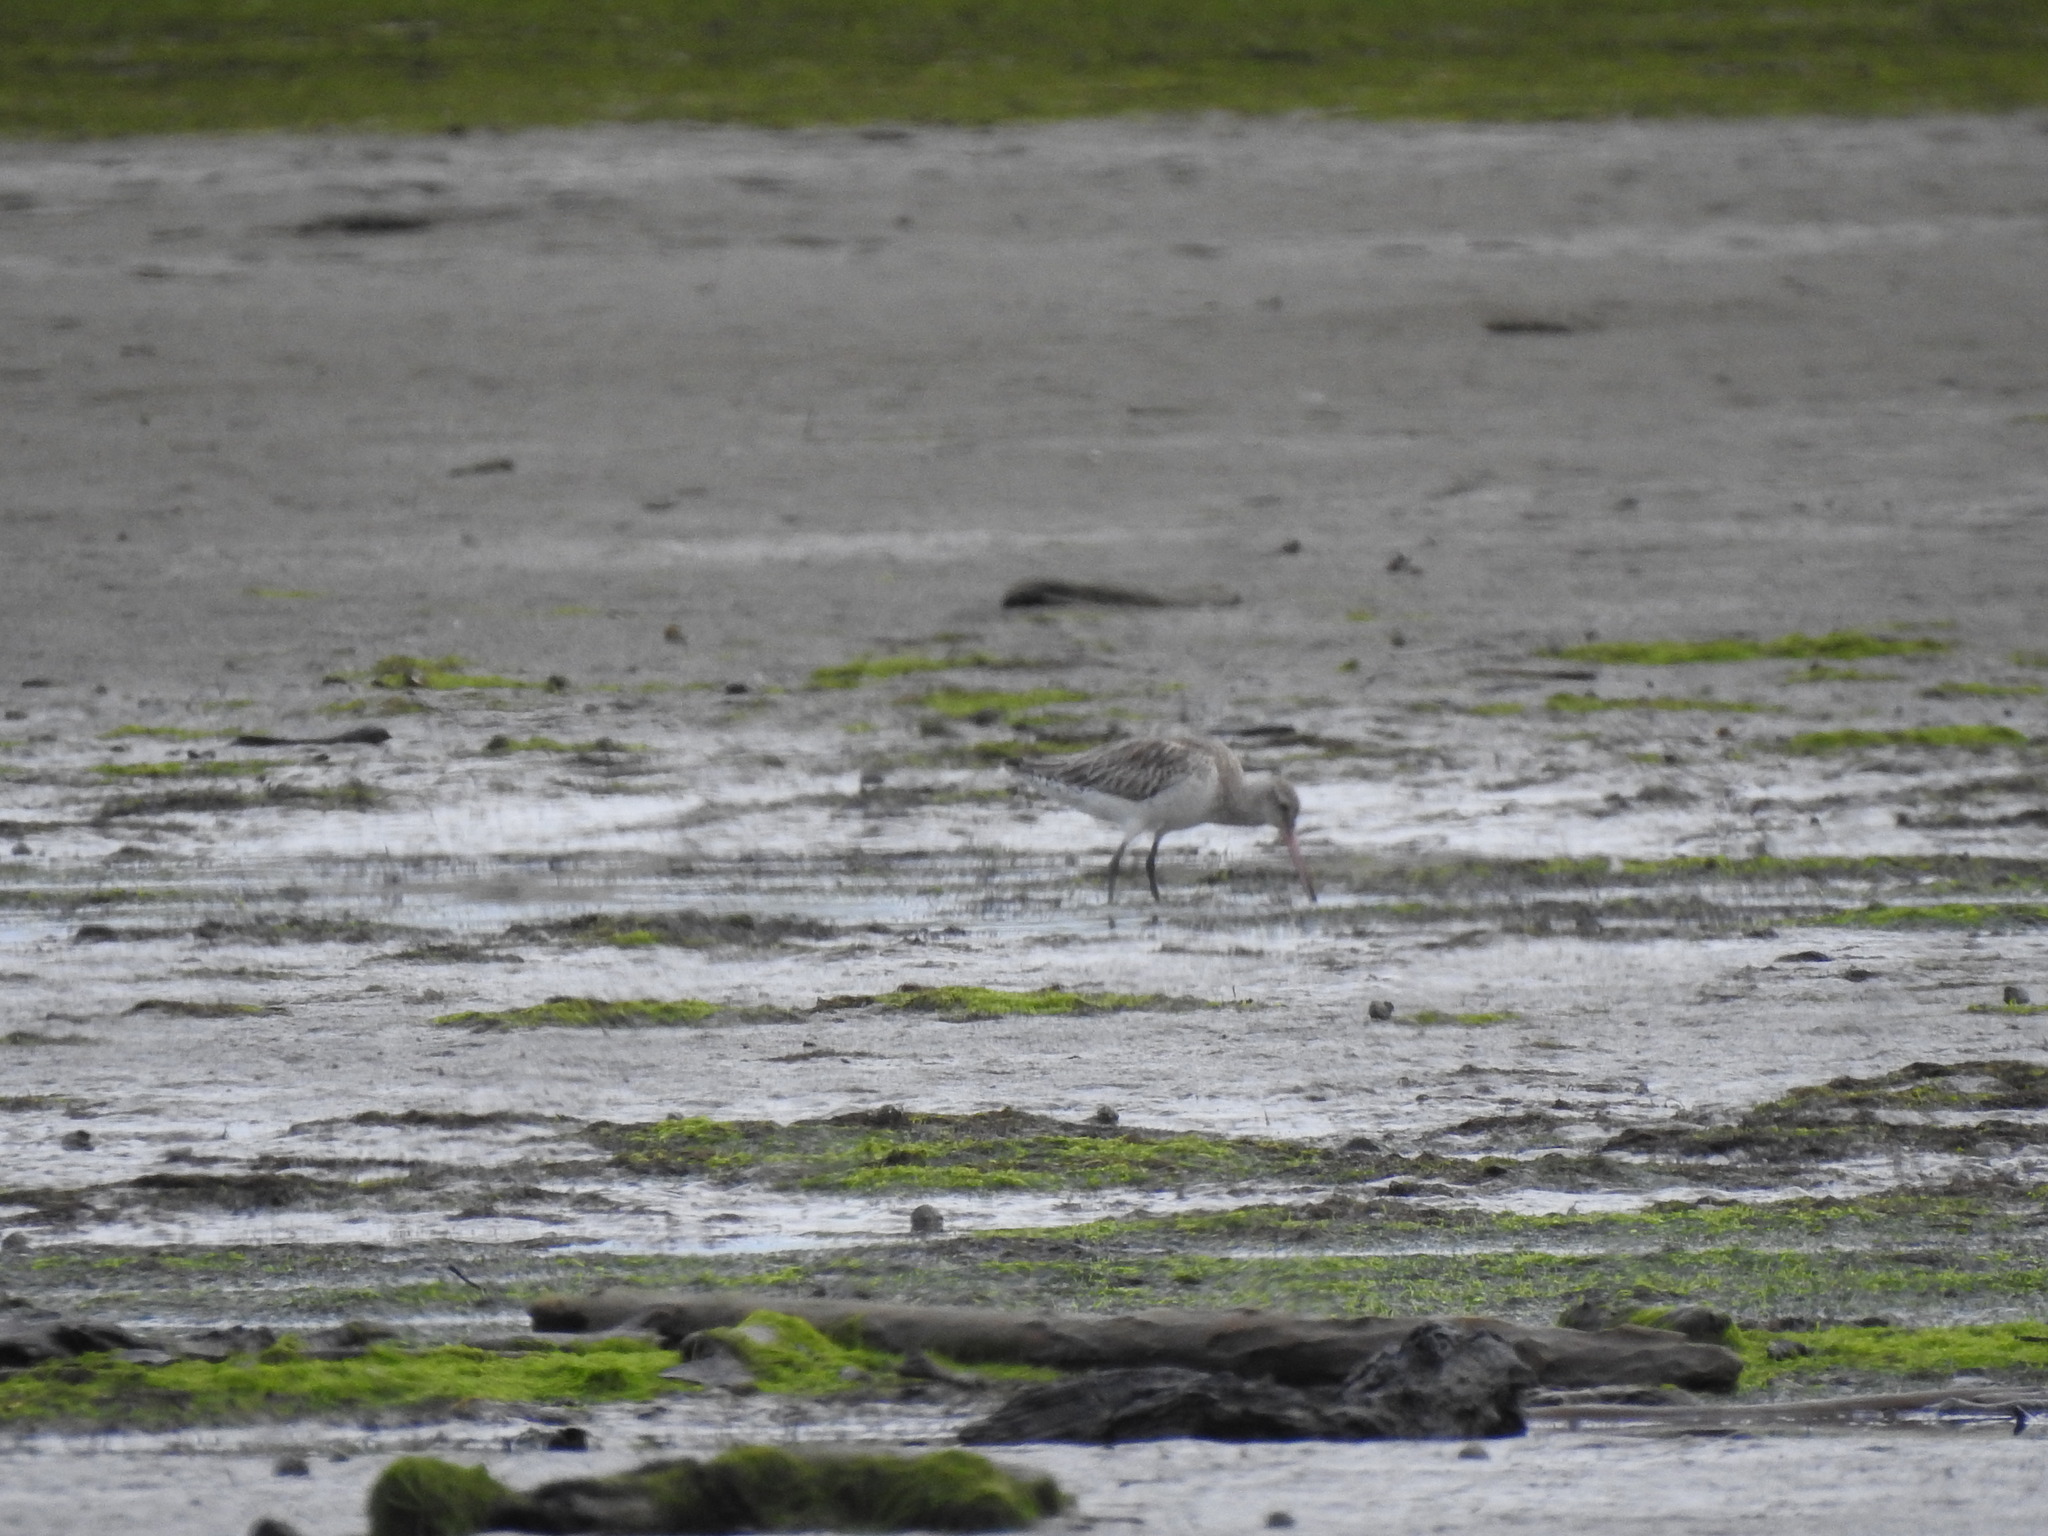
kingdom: Animalia
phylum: Chordata
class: Aves
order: Charadriiformes
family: Scolopacidae
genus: Limosa
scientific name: Limosa lapponica
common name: Bar-tailed godwit
